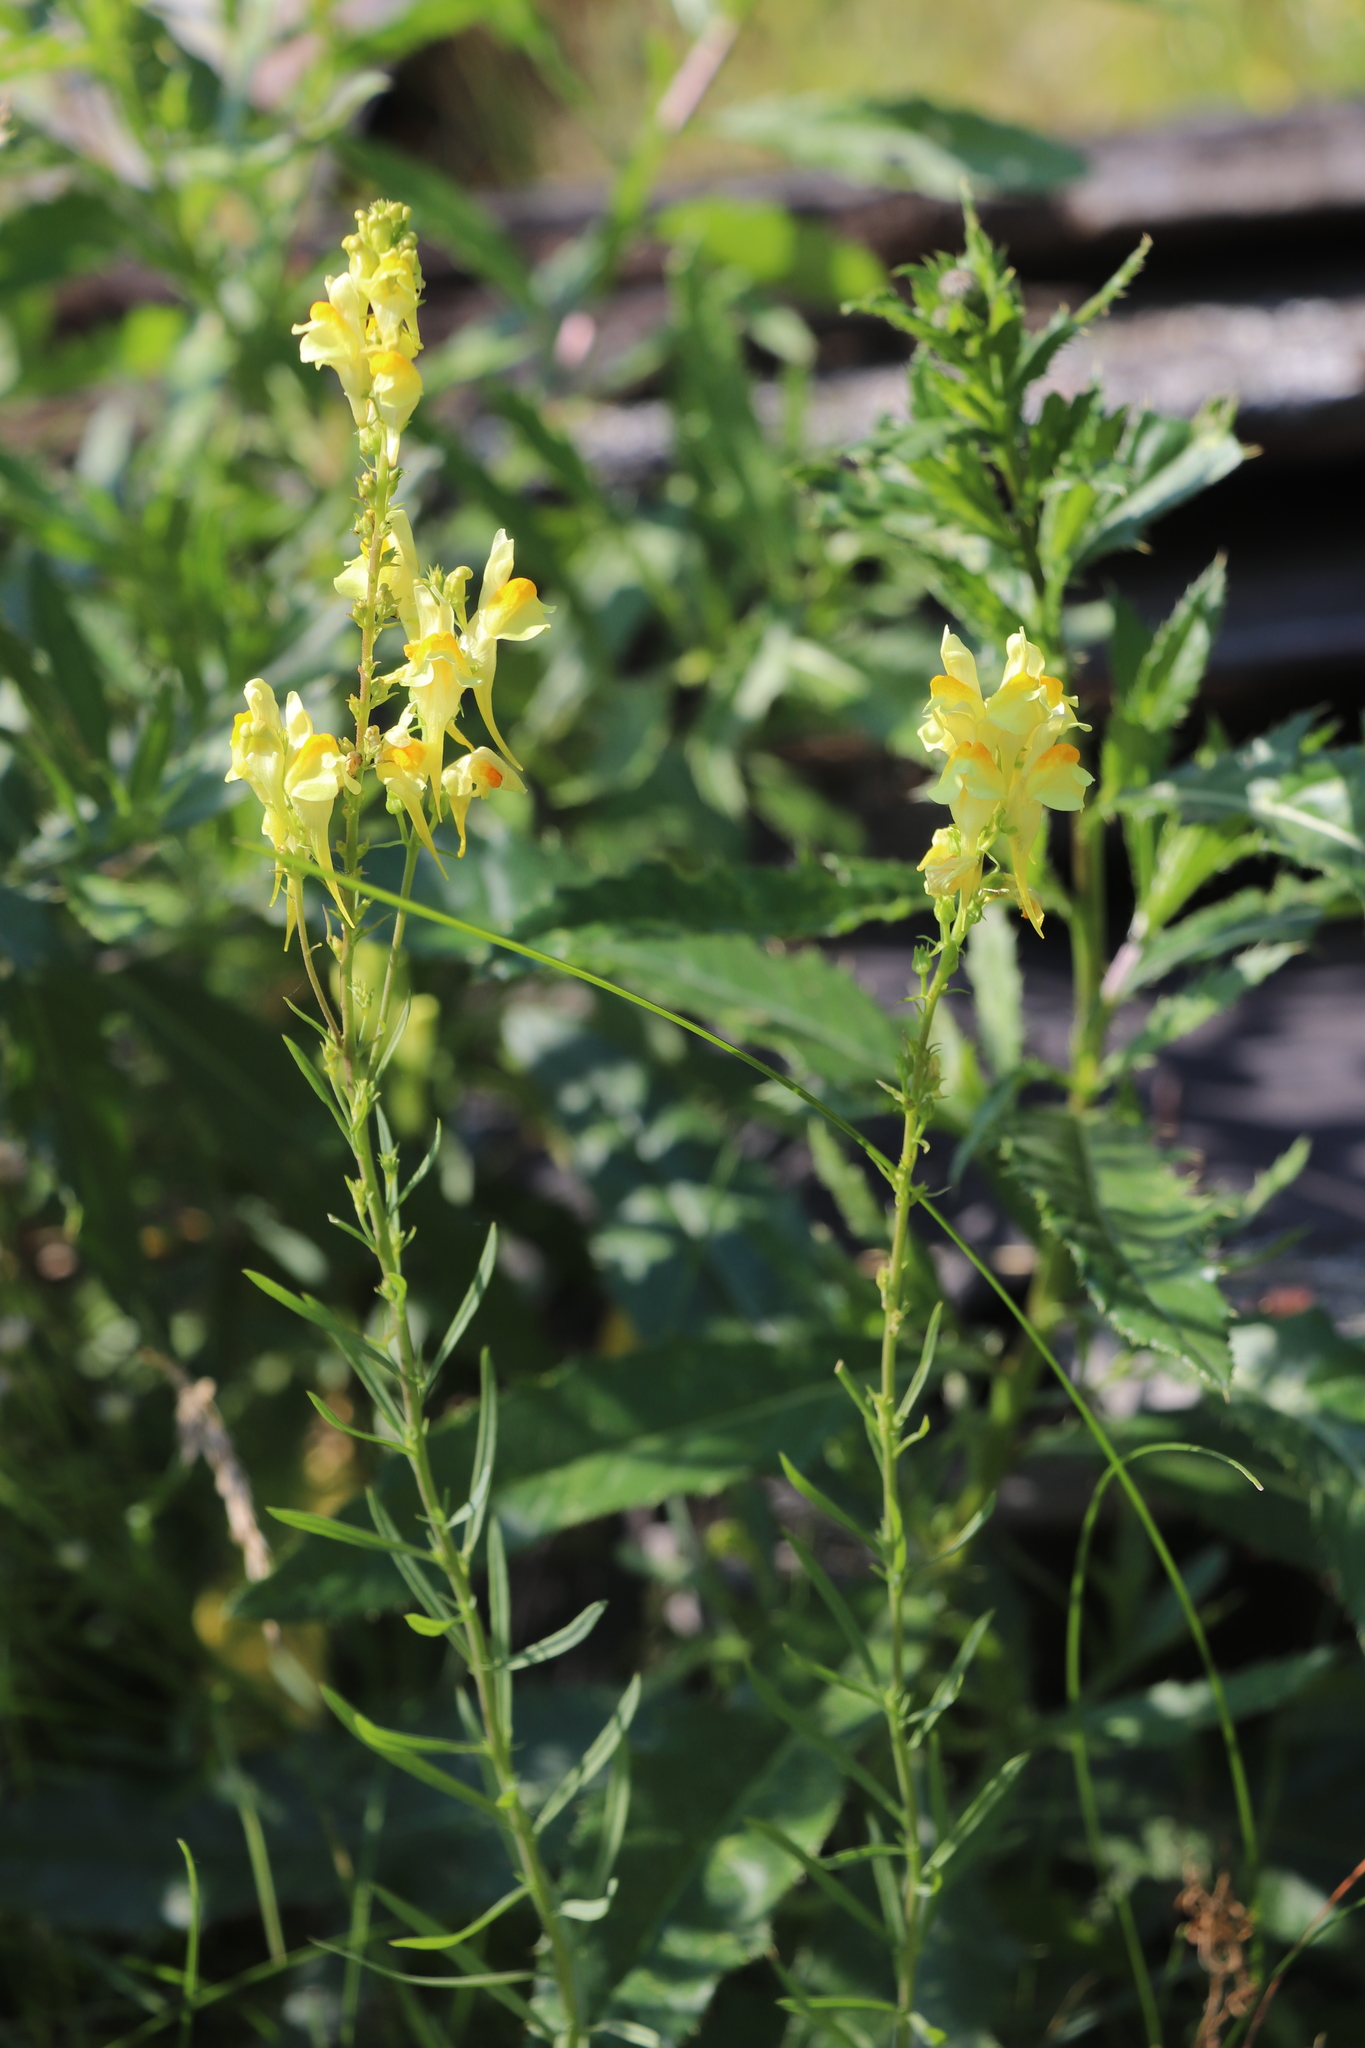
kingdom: Plantae
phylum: Tracheophyta
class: Magnoliopsida
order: Lamiales
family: Plantaginaceae
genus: Linaria
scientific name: Linaria vulgaris
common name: Butter and eggs
